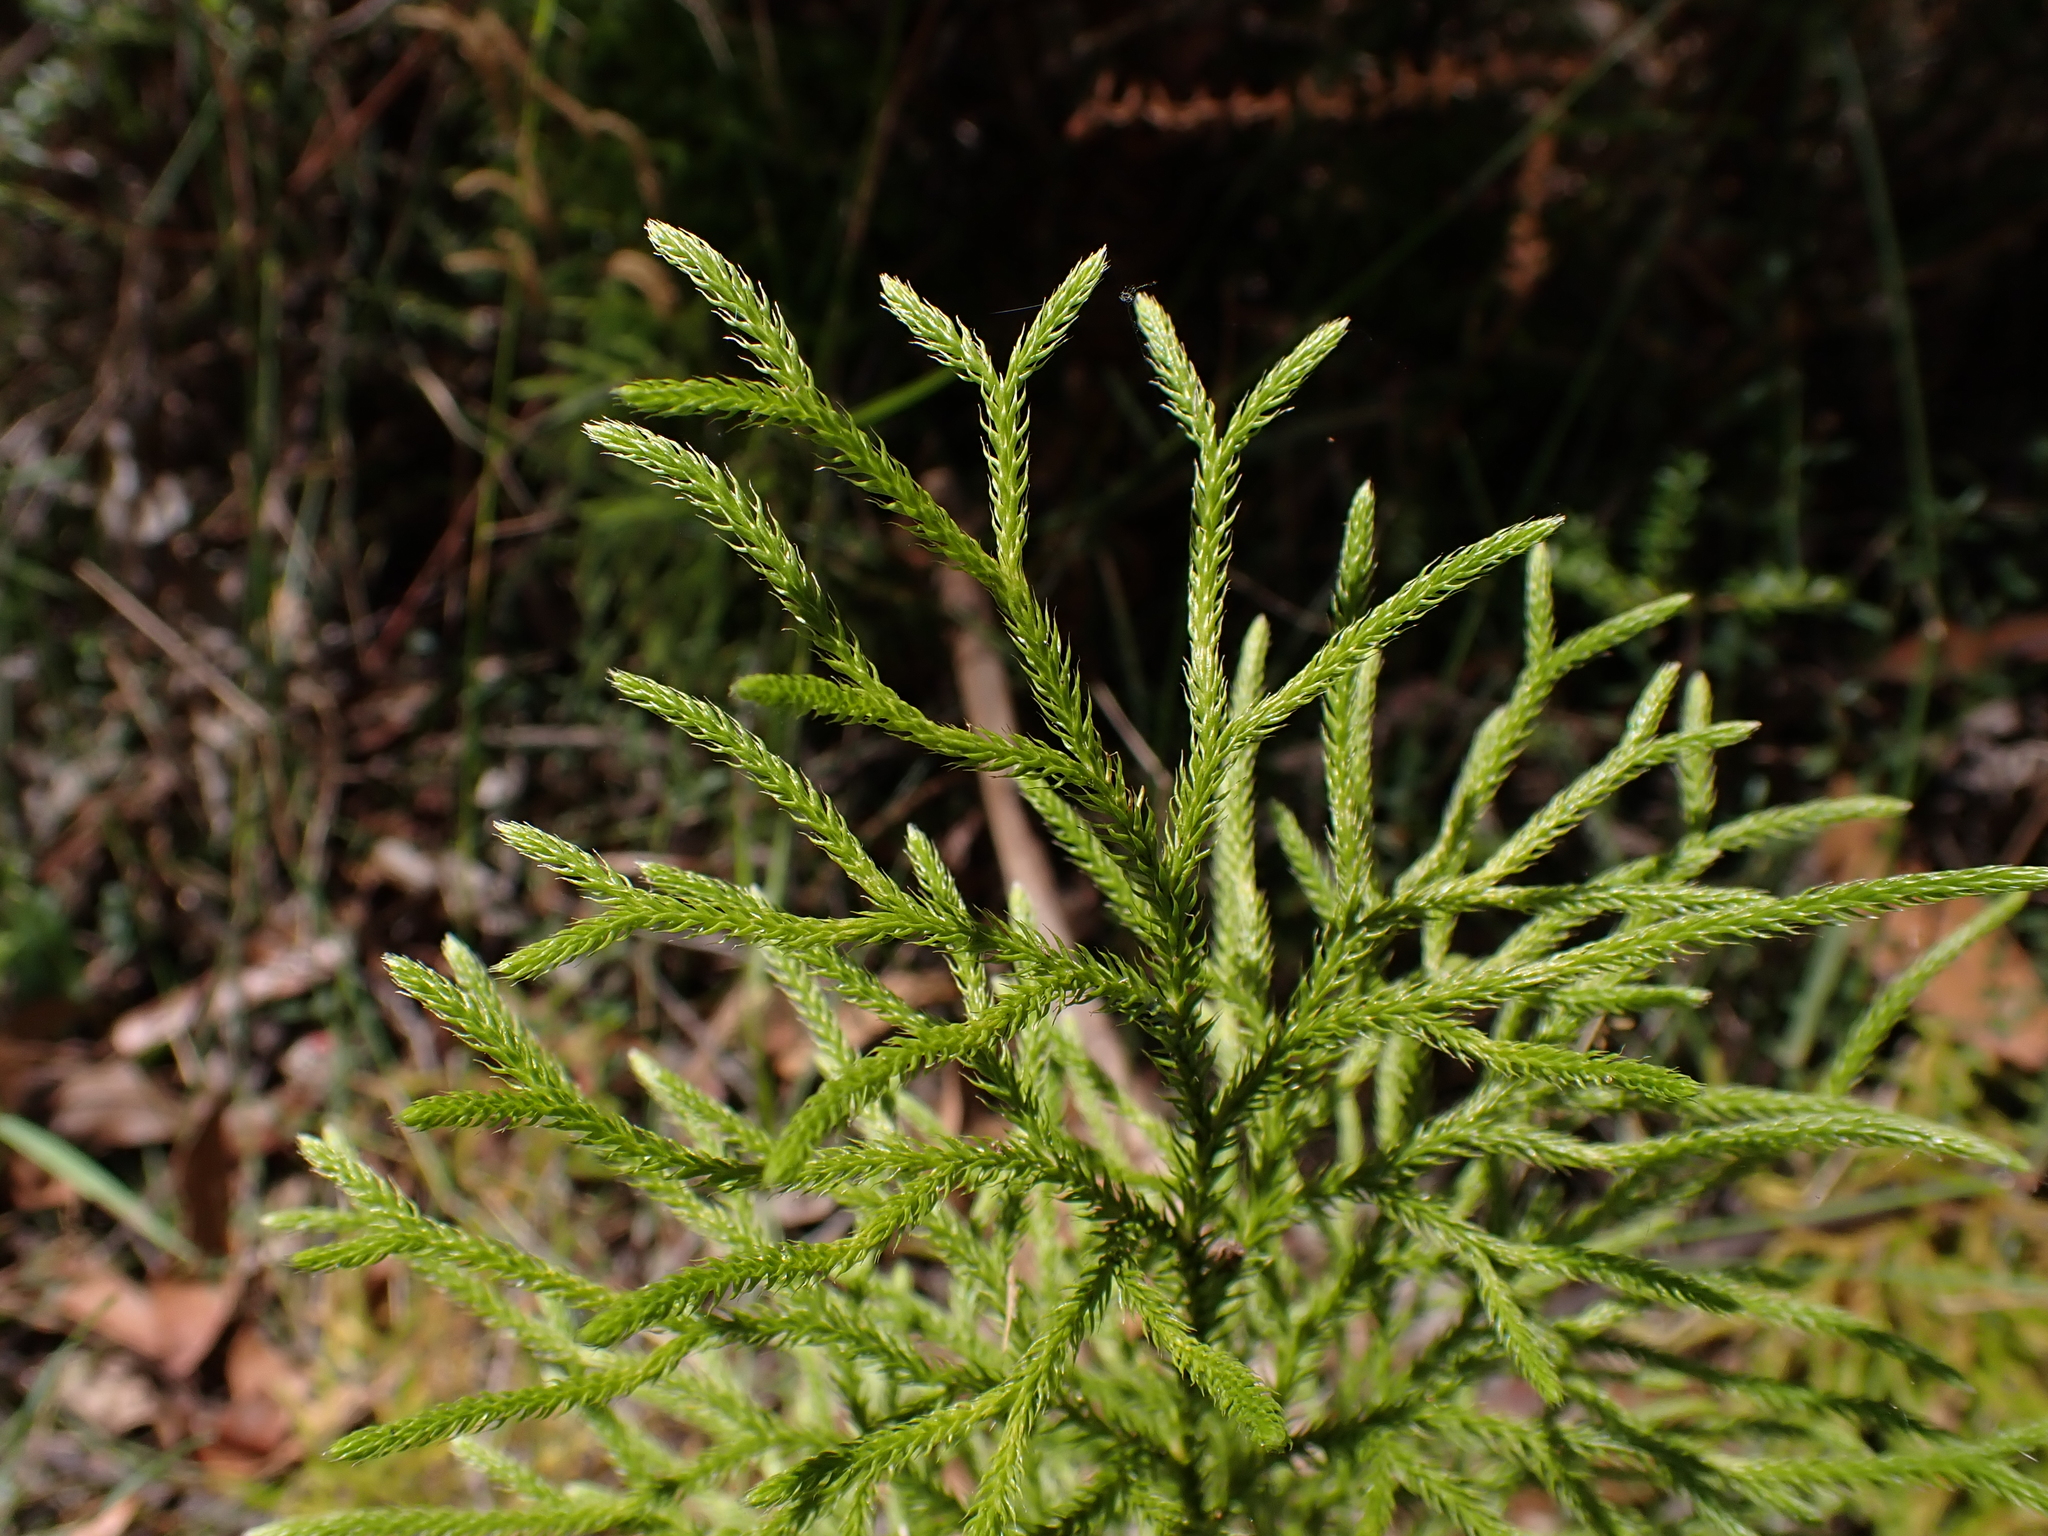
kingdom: Plantae
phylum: Tracheophyta
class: Lycopodiopsida
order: Lycopodiales
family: Lycopodiaceae
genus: Pseudolycopodium
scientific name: Pseudolycopodium densum
